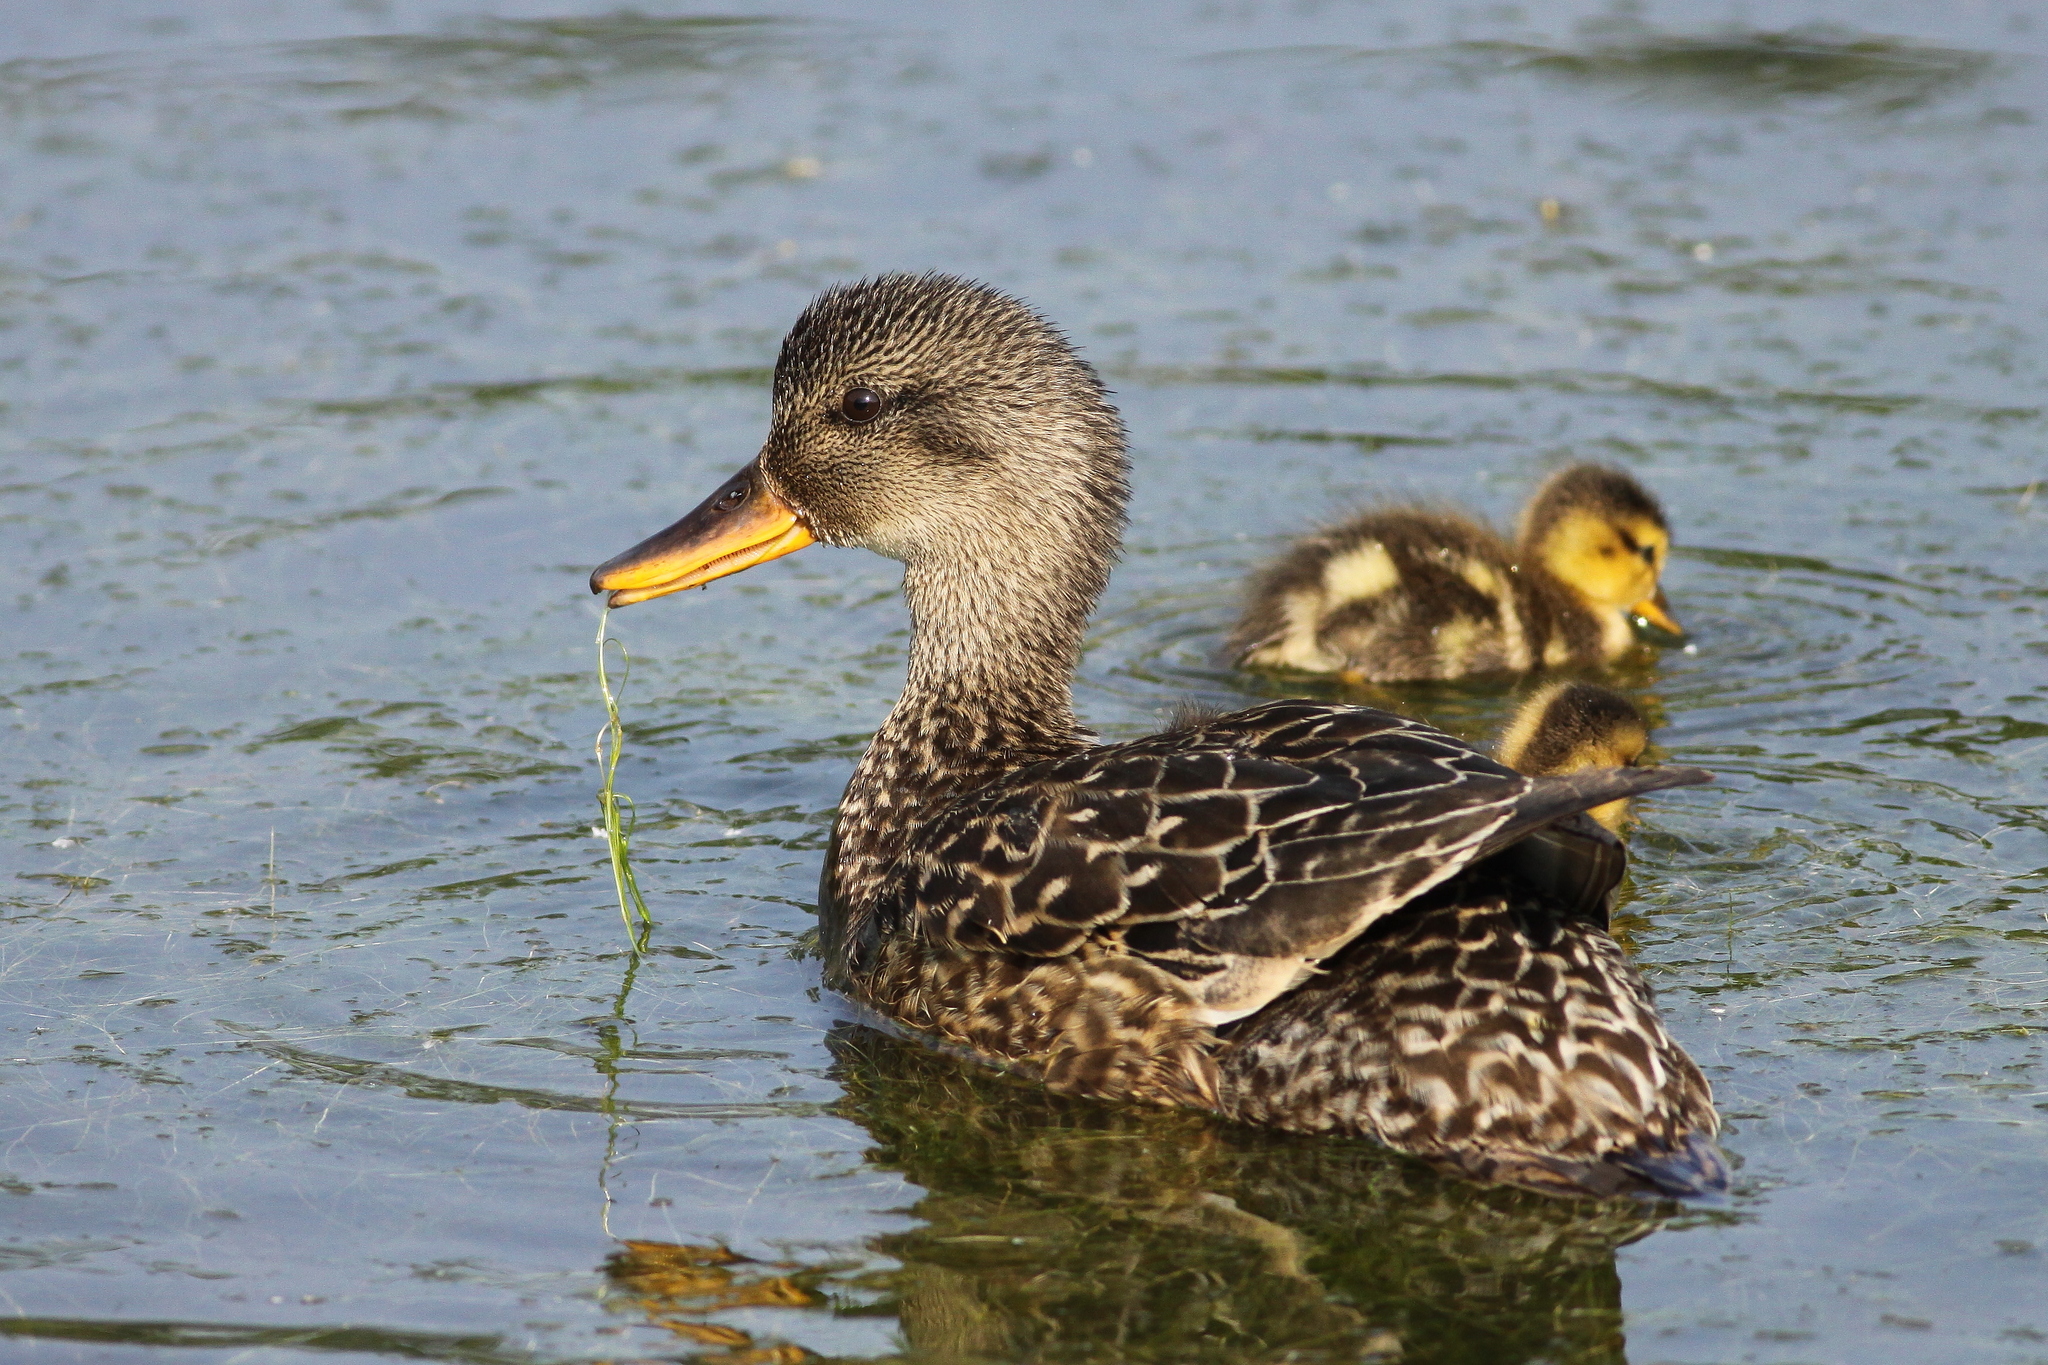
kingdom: Animalia
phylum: Chordata
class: Aves
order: Anseriformes
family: Anatidae
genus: Mareca
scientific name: Mareca strepera
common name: Gadwall
